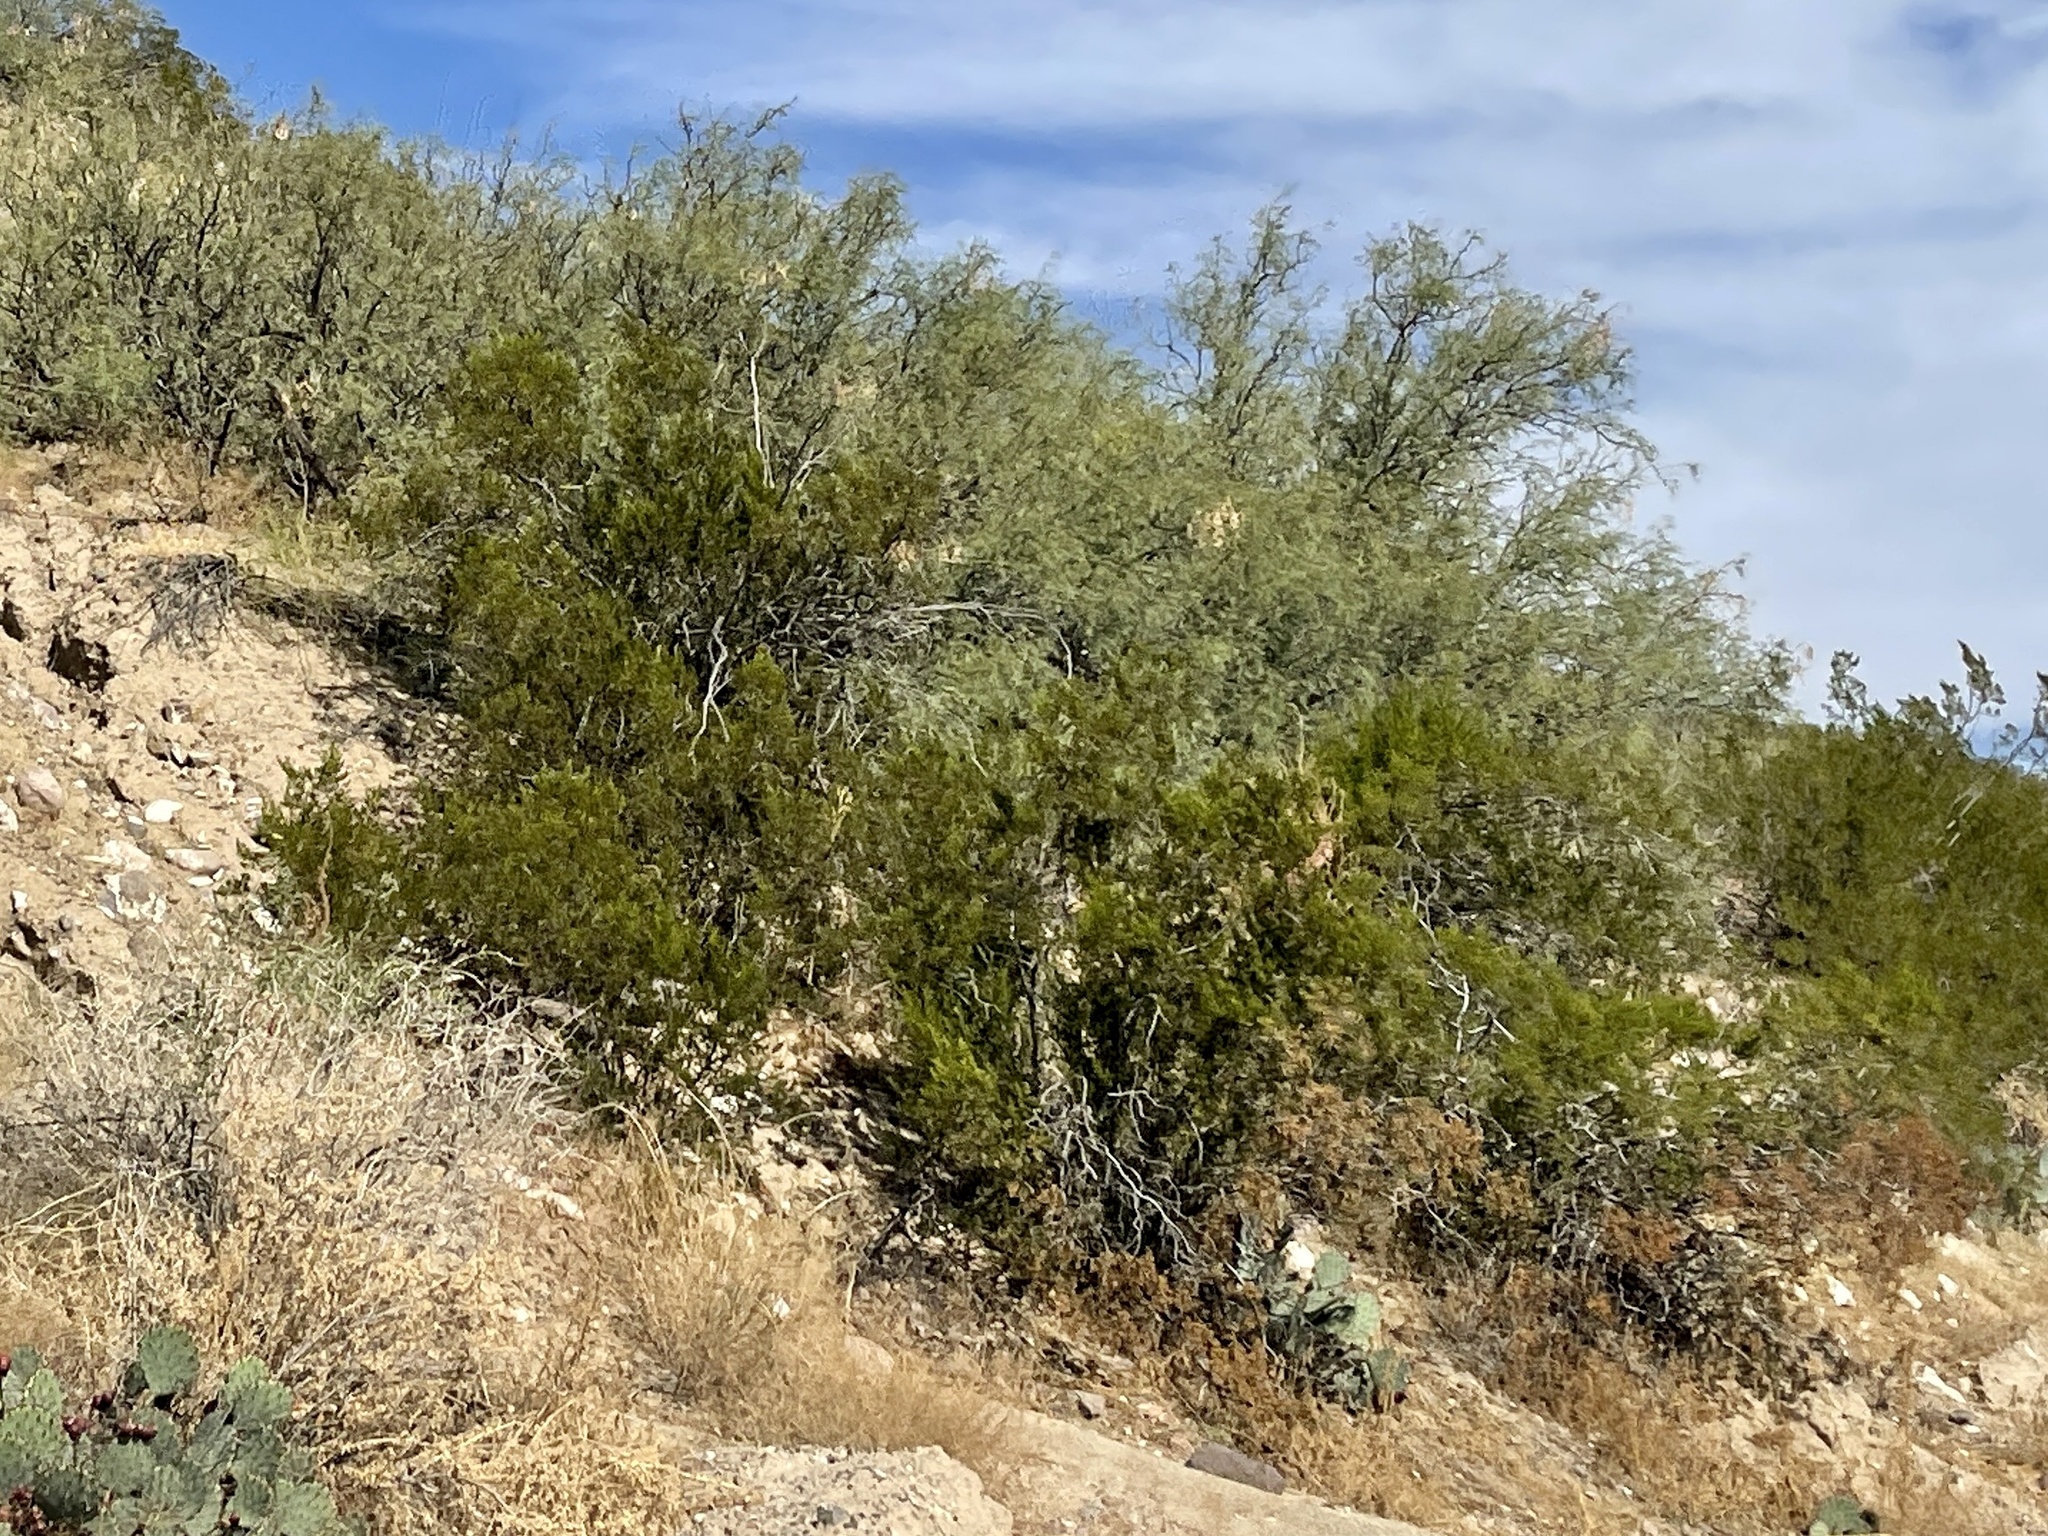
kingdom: Plantae
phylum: Tracheophyta
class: Magnoliopsida
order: Zygophyllales
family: Zygophyllaceae
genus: Larrea
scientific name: Larrea tridentata
